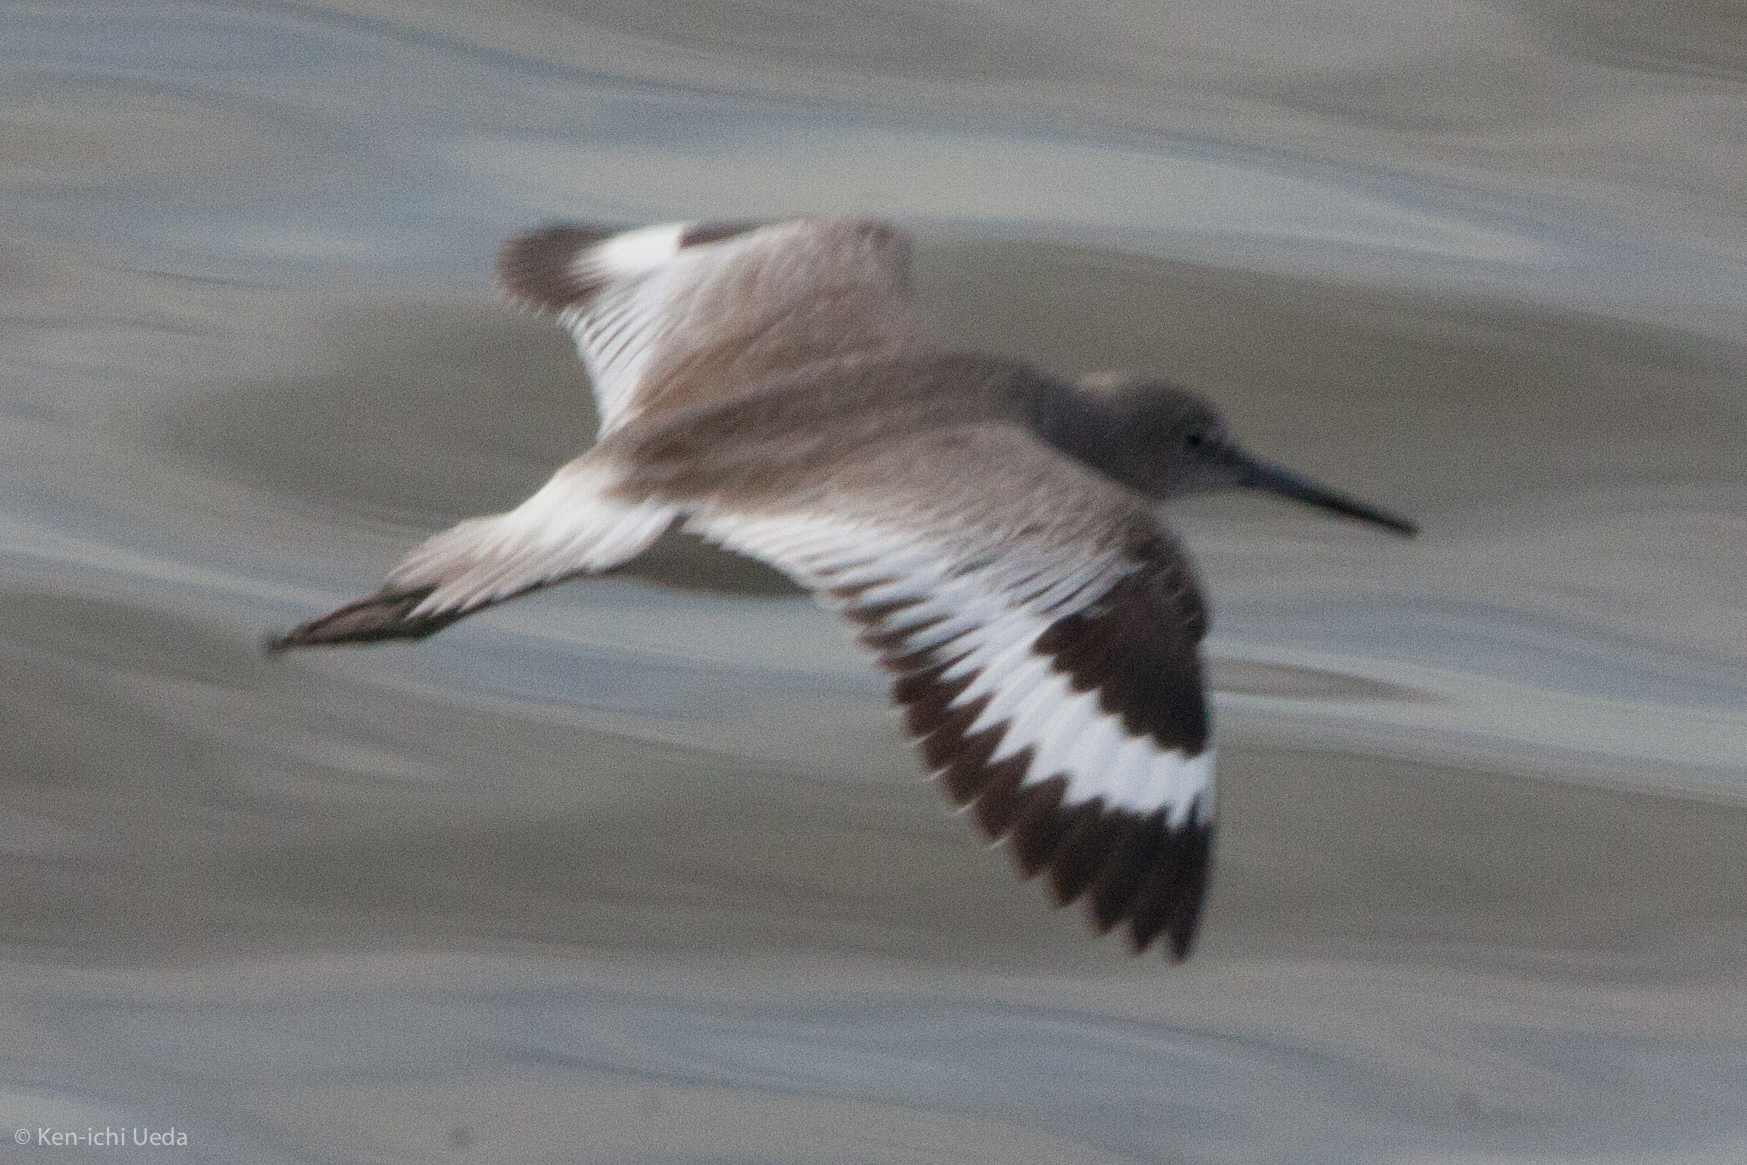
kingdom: Animalia
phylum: Chordata
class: Aves
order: Charadriiformes
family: Scolopacidae
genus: Tringa
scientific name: Tringa semipalmata
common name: Willet
